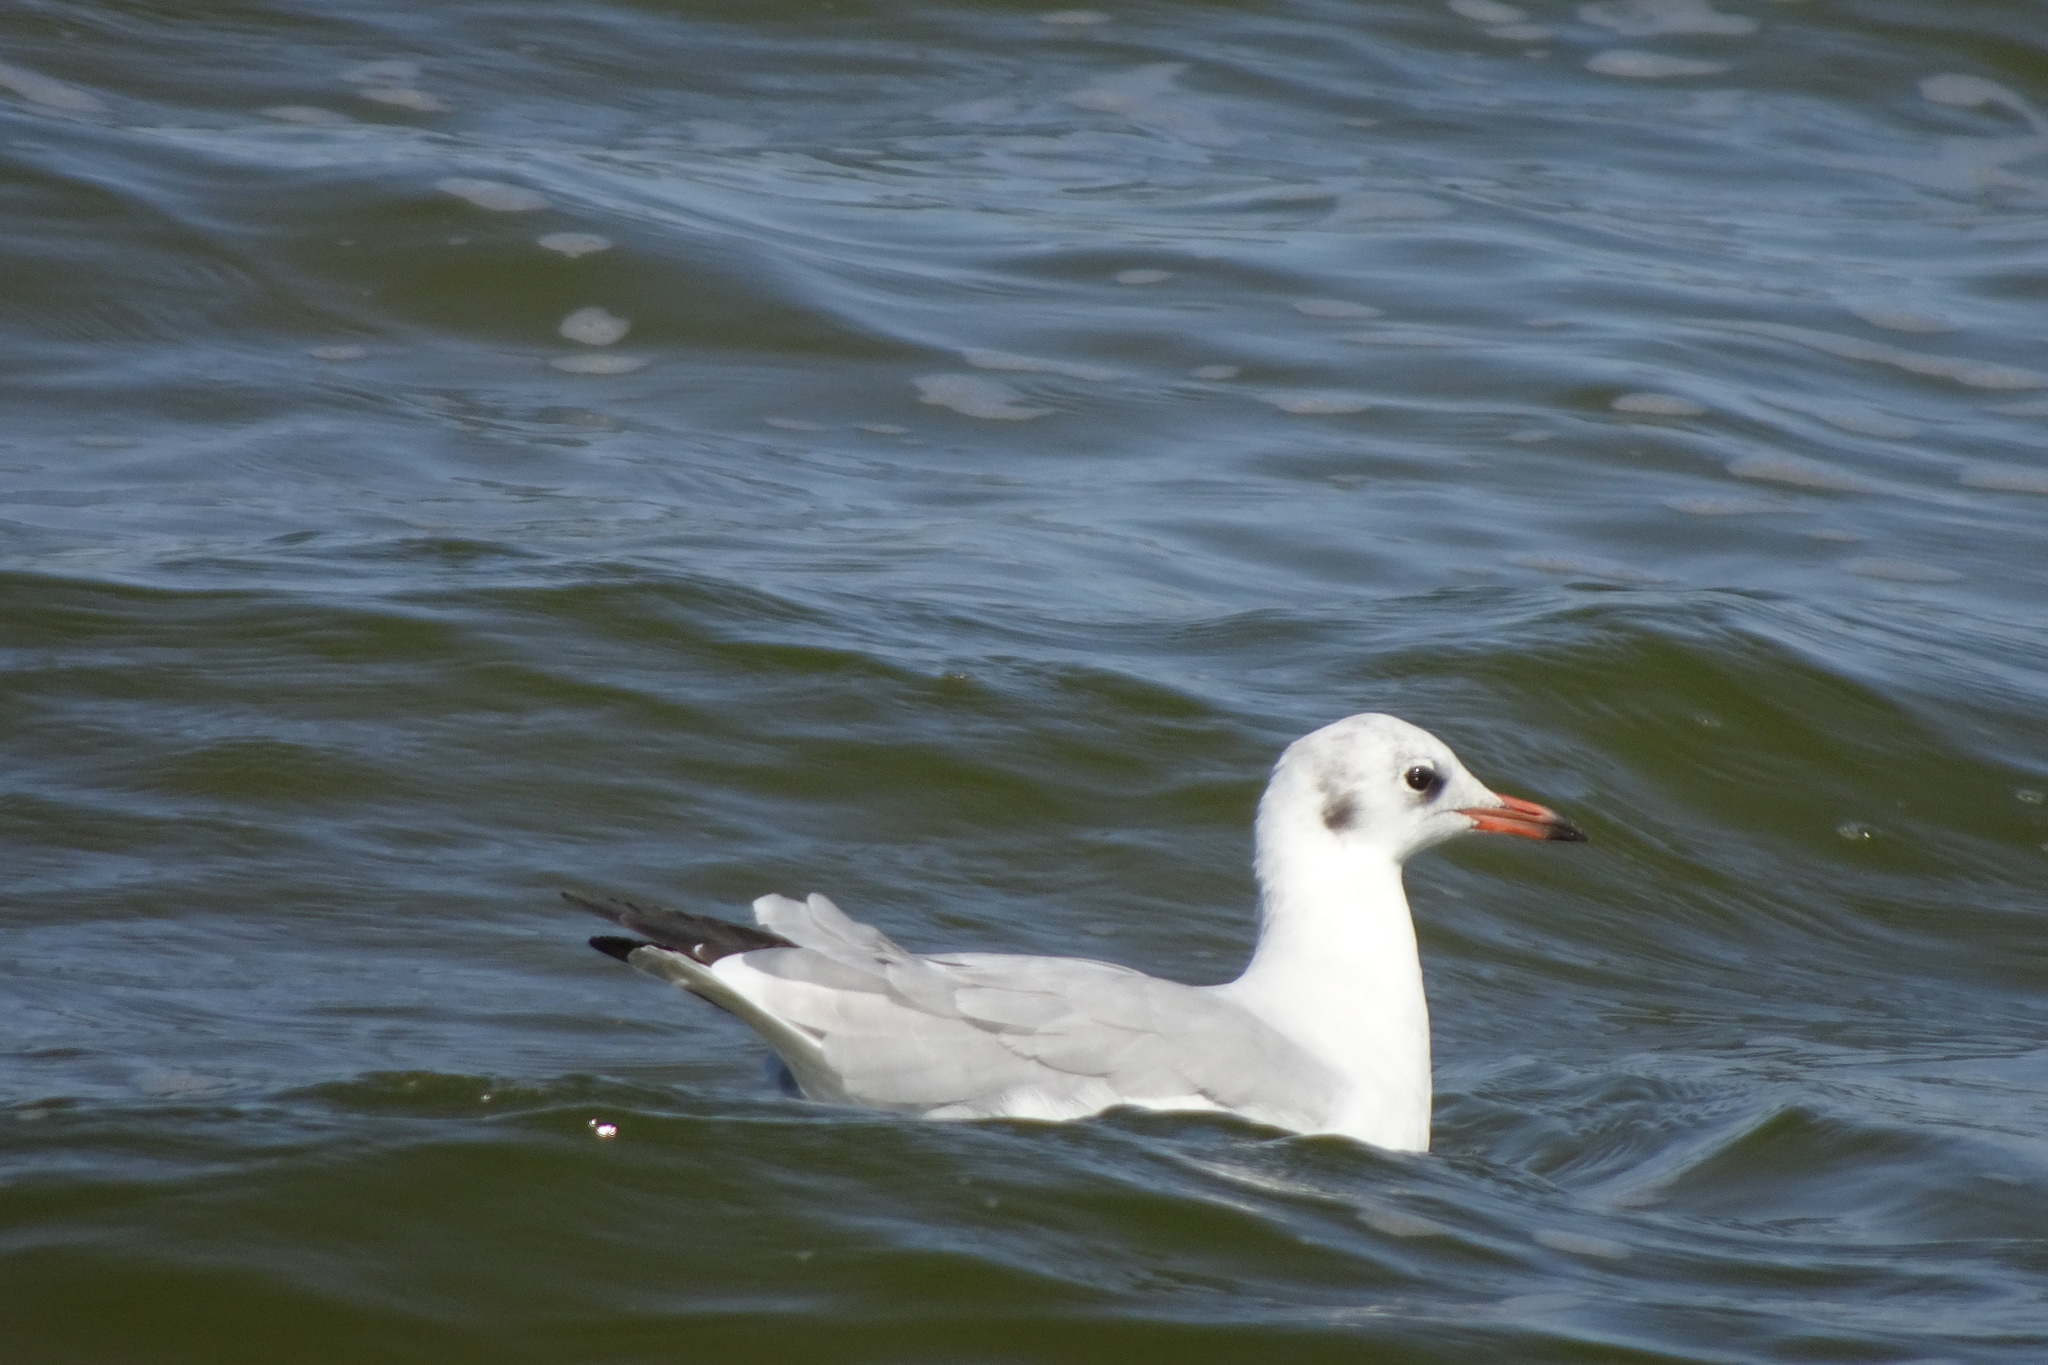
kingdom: Animalia
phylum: Chordata
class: Aves
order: Charadriiformes
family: Laridae
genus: Chroicocephalus
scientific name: Chroicocephalus ridibundus
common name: Black-headed gull
